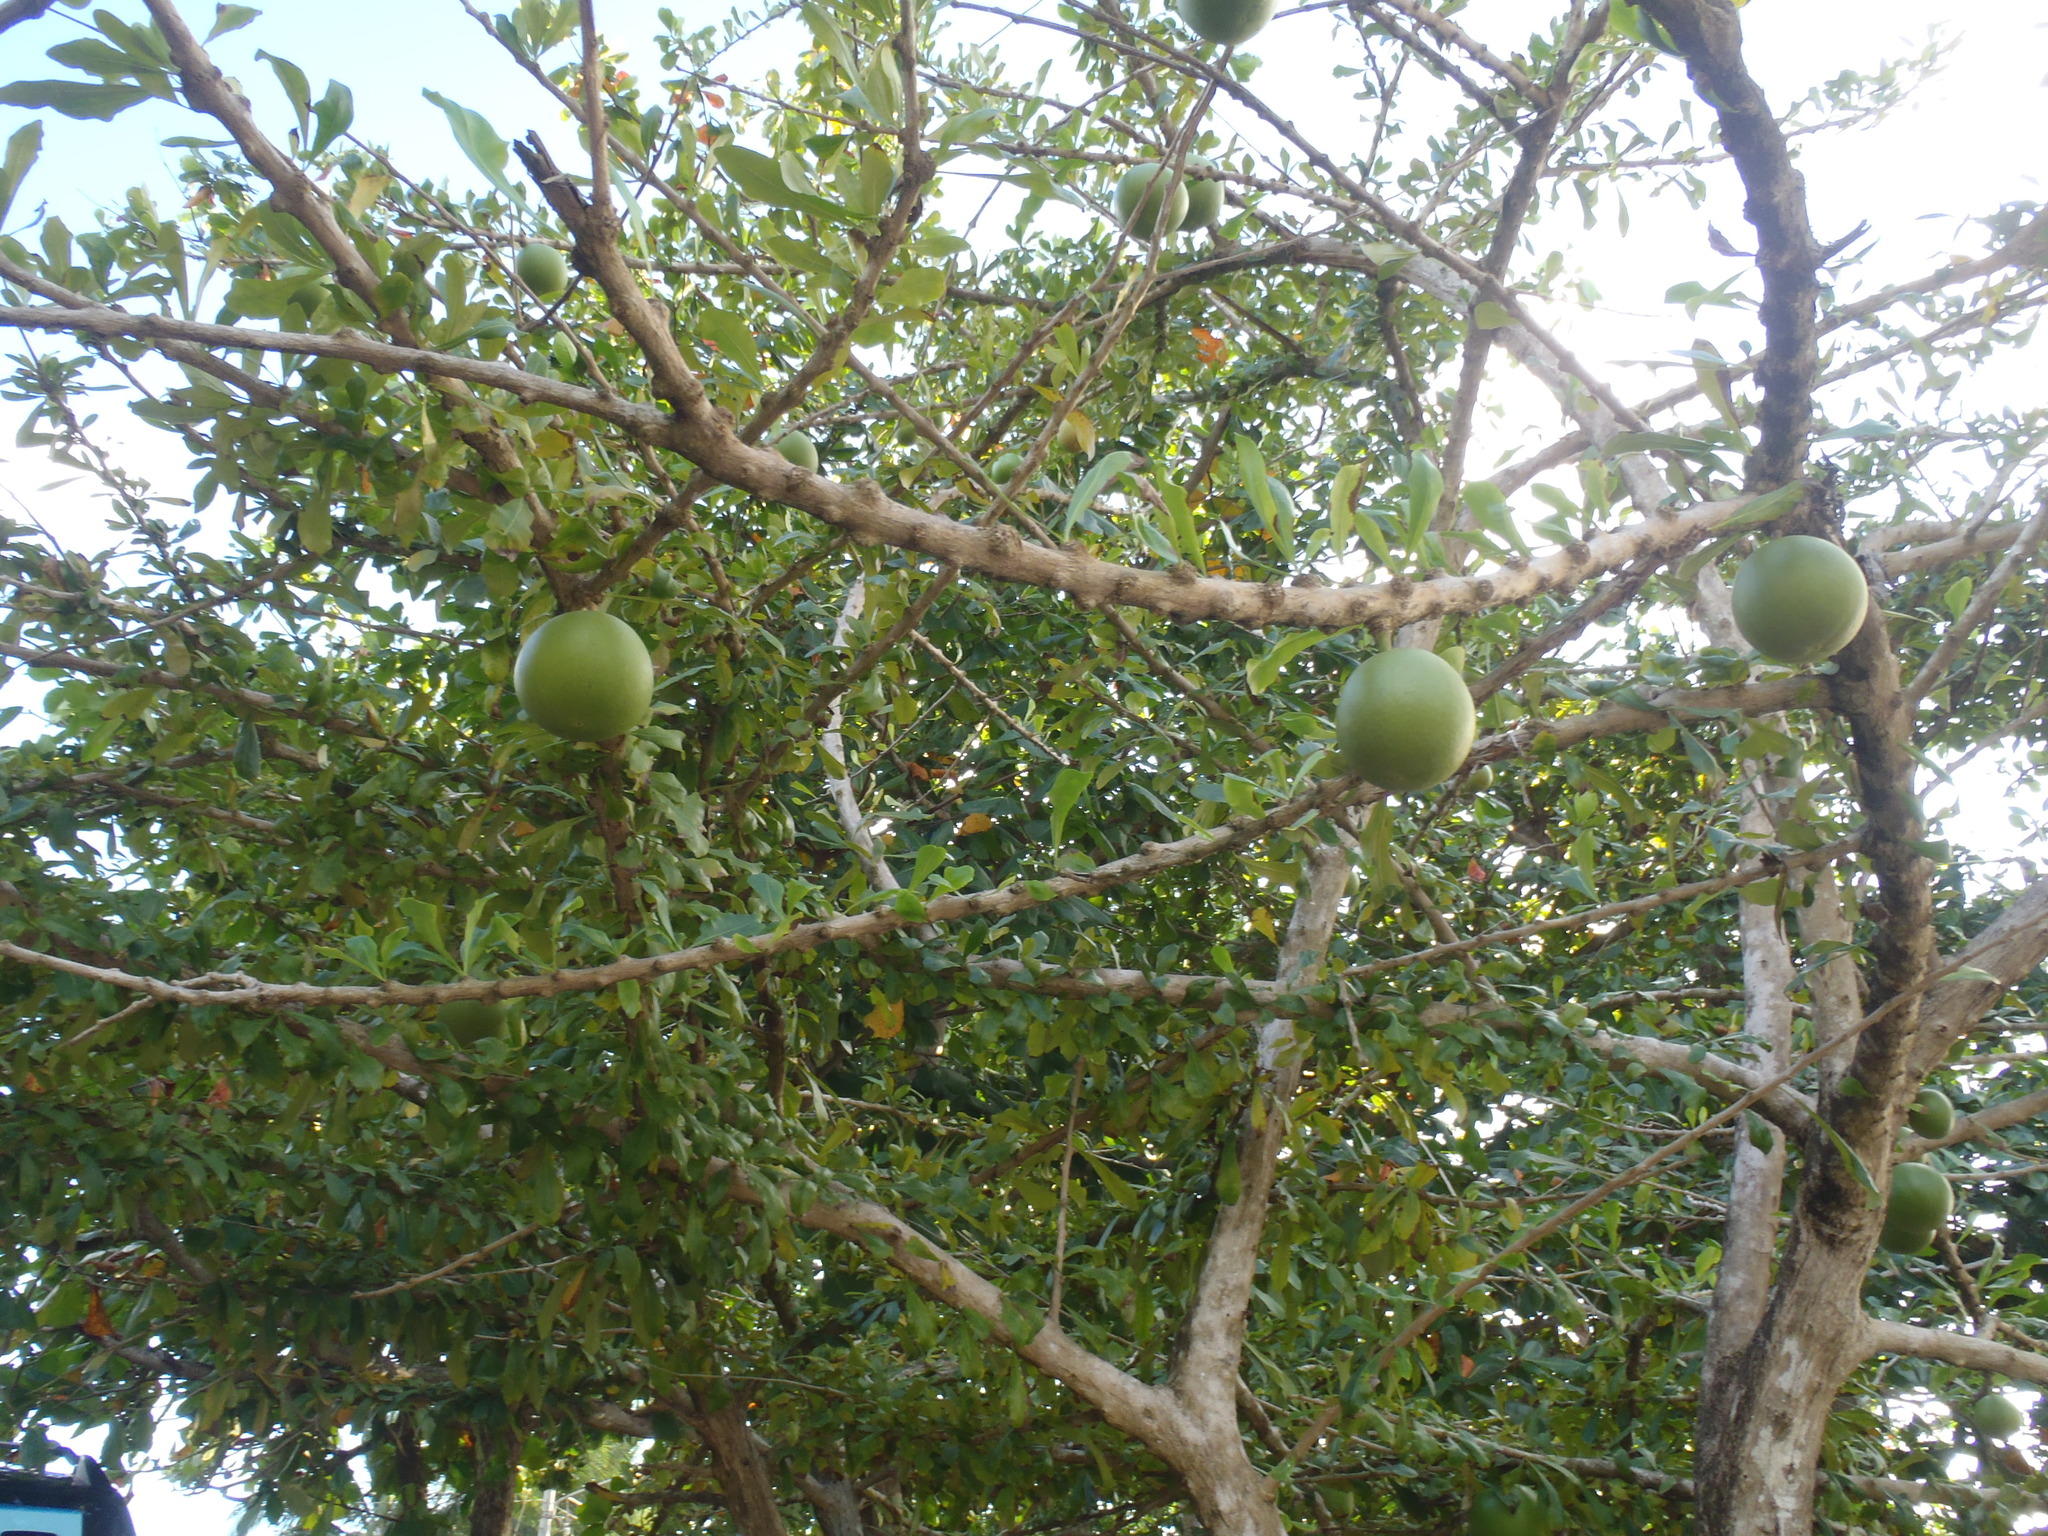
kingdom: Plantae
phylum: Tracheophyta
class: Magnoliopsida
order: Lamiales
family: Bignoniaceae
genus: Crescentia
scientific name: Crescentia cujete
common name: Calabash
